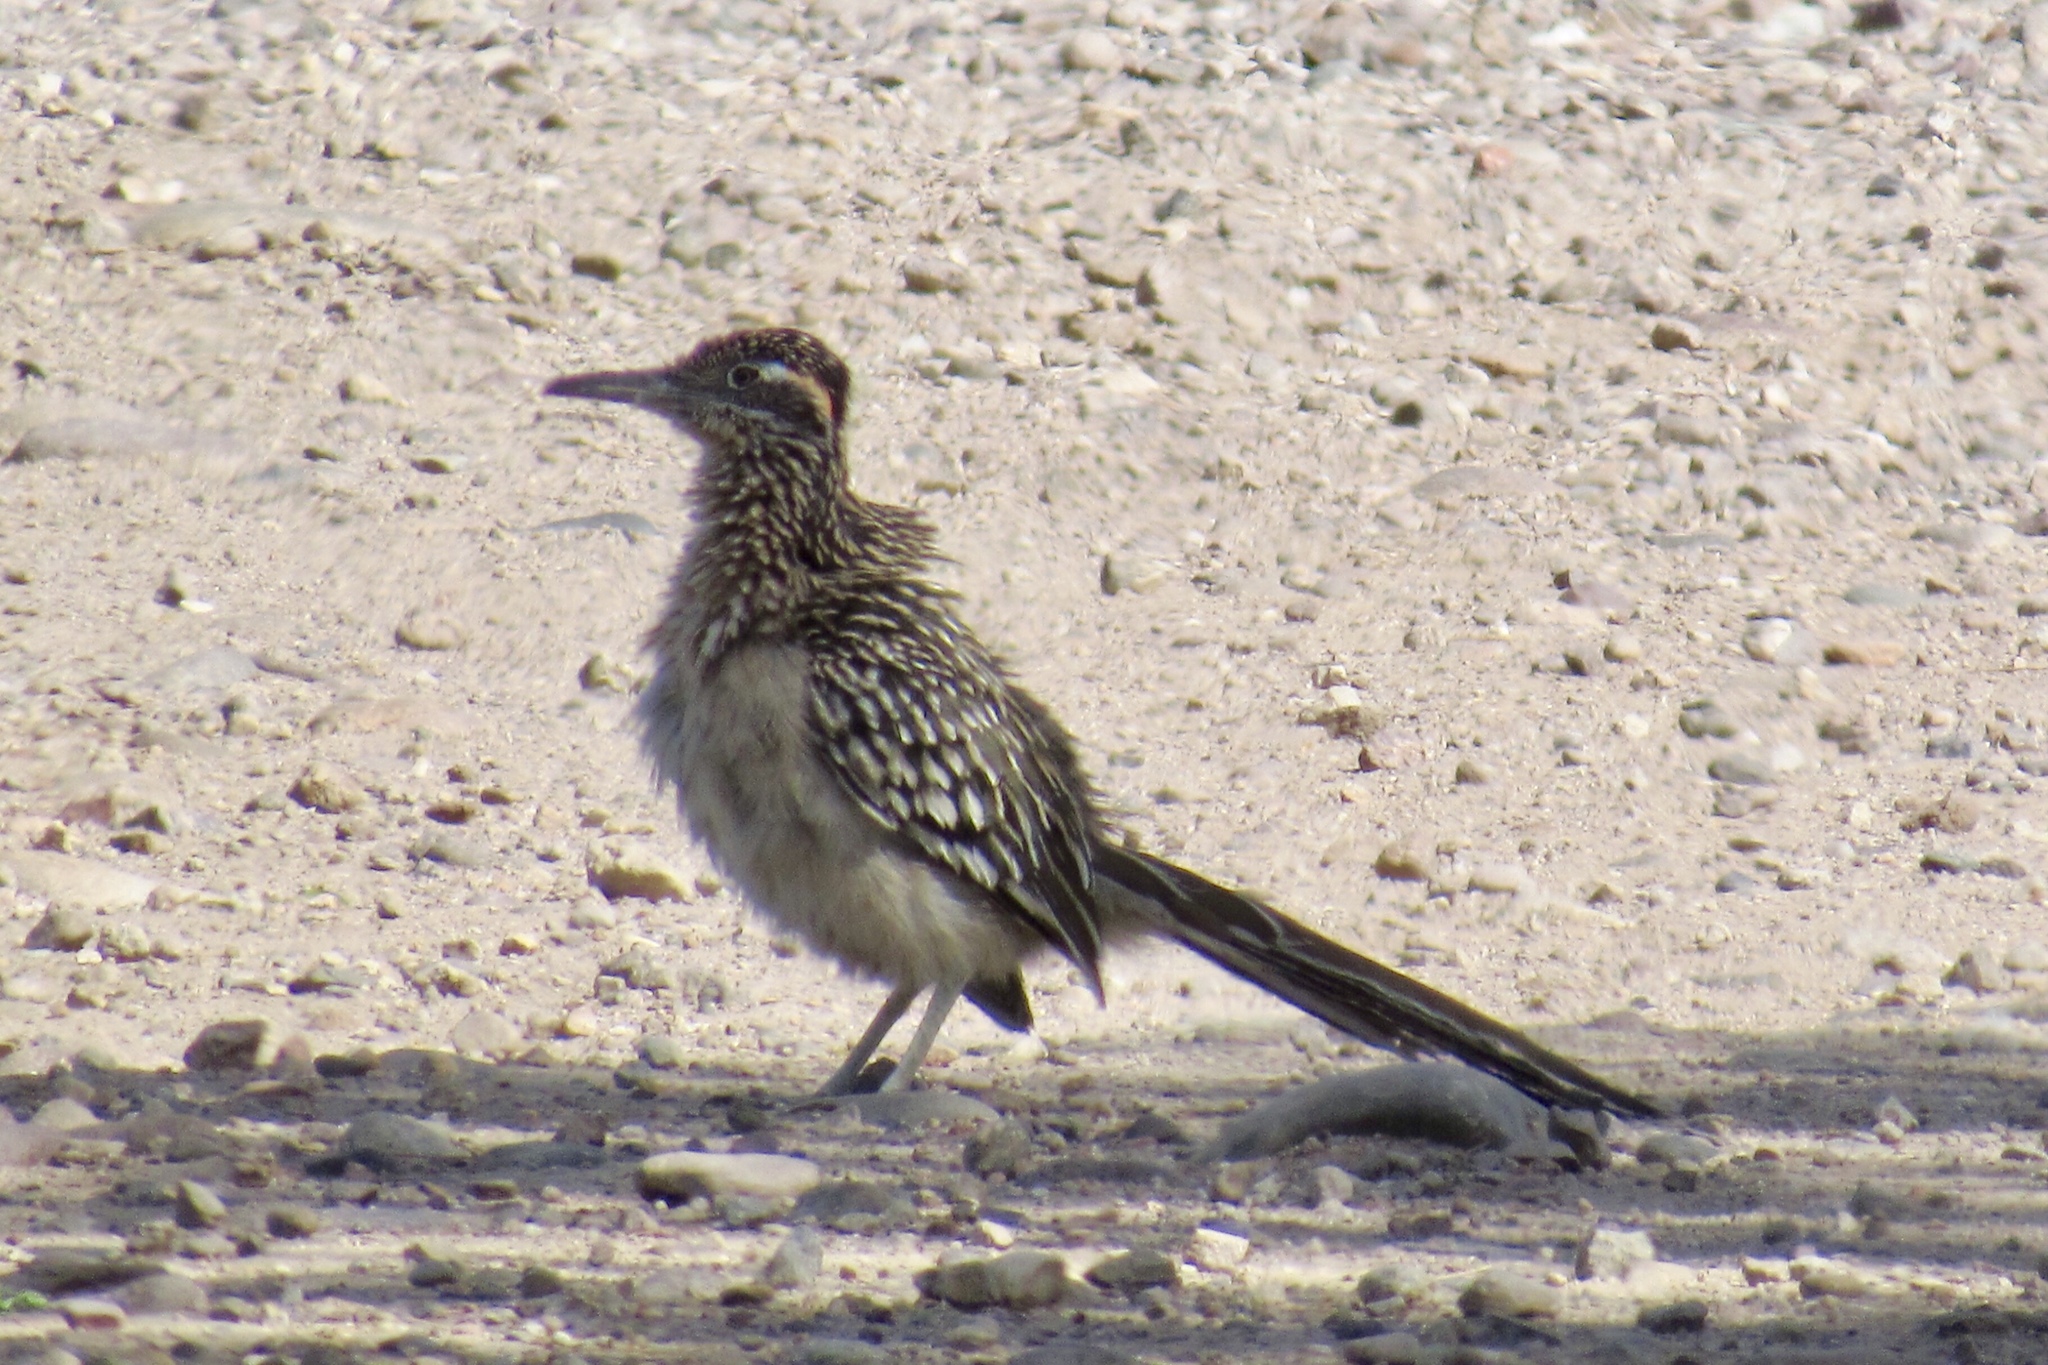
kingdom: Animalia
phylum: Chordata
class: Aves
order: Cuculiformes
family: Cuculidae
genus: Geococcyx
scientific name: Geococcyx californianus
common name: Greater roadrunner
